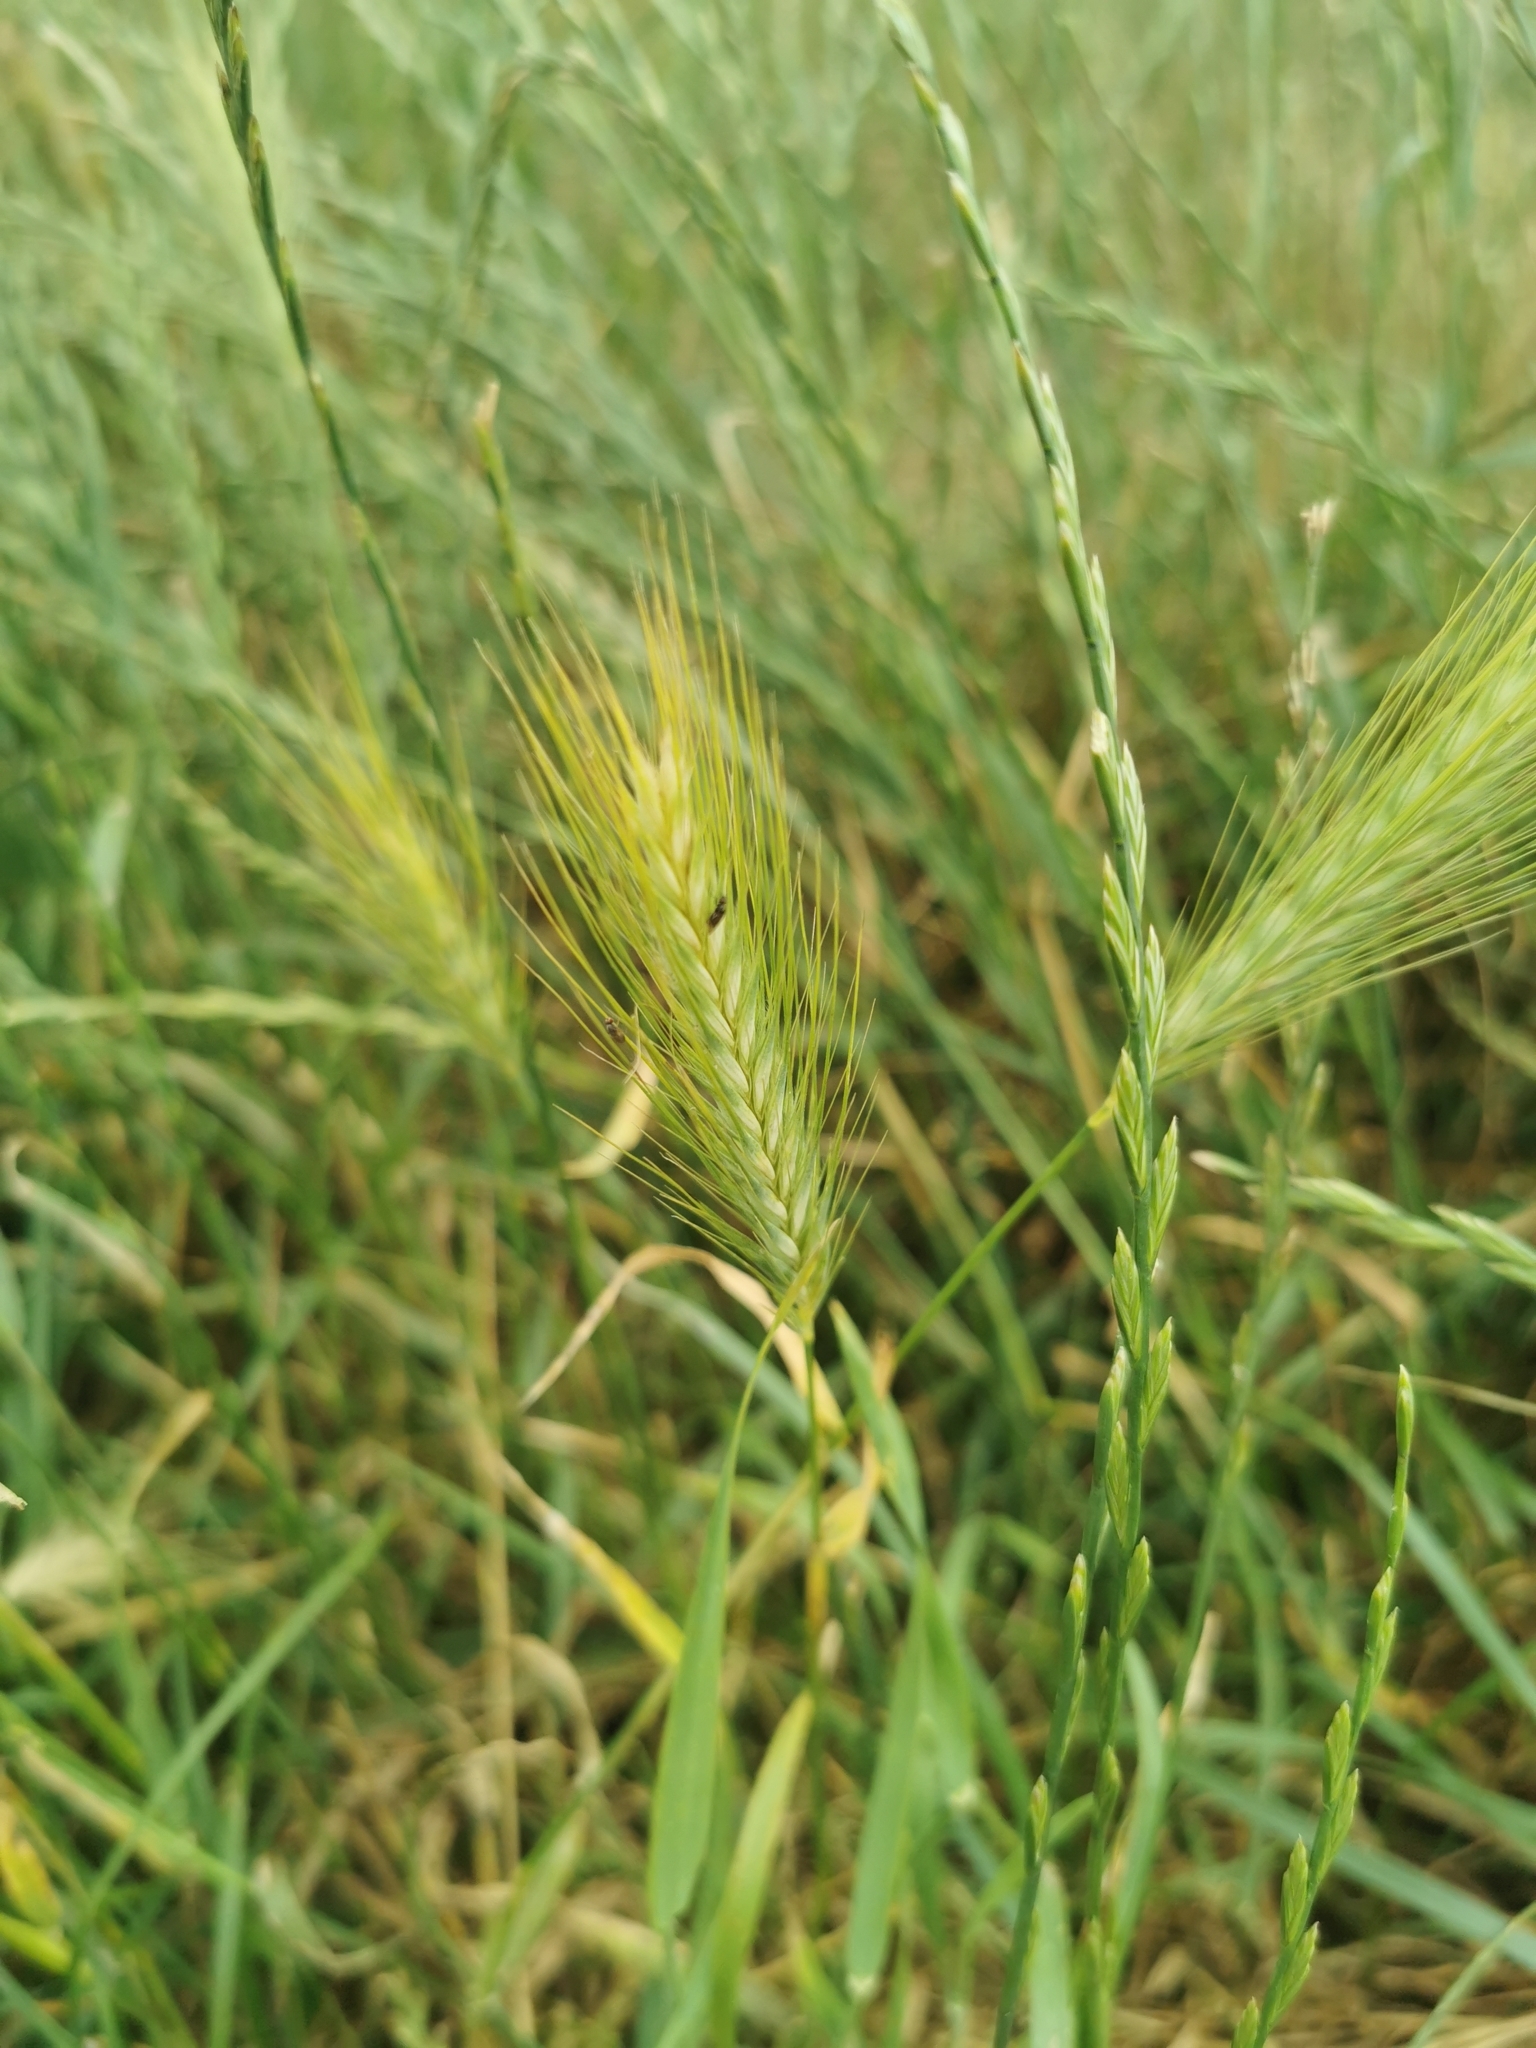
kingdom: Plantae
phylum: Tracheophyta
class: Liliopsida
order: Poales
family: Poaceae
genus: Hordeum
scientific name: Hordeum murinum
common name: Wall barley
